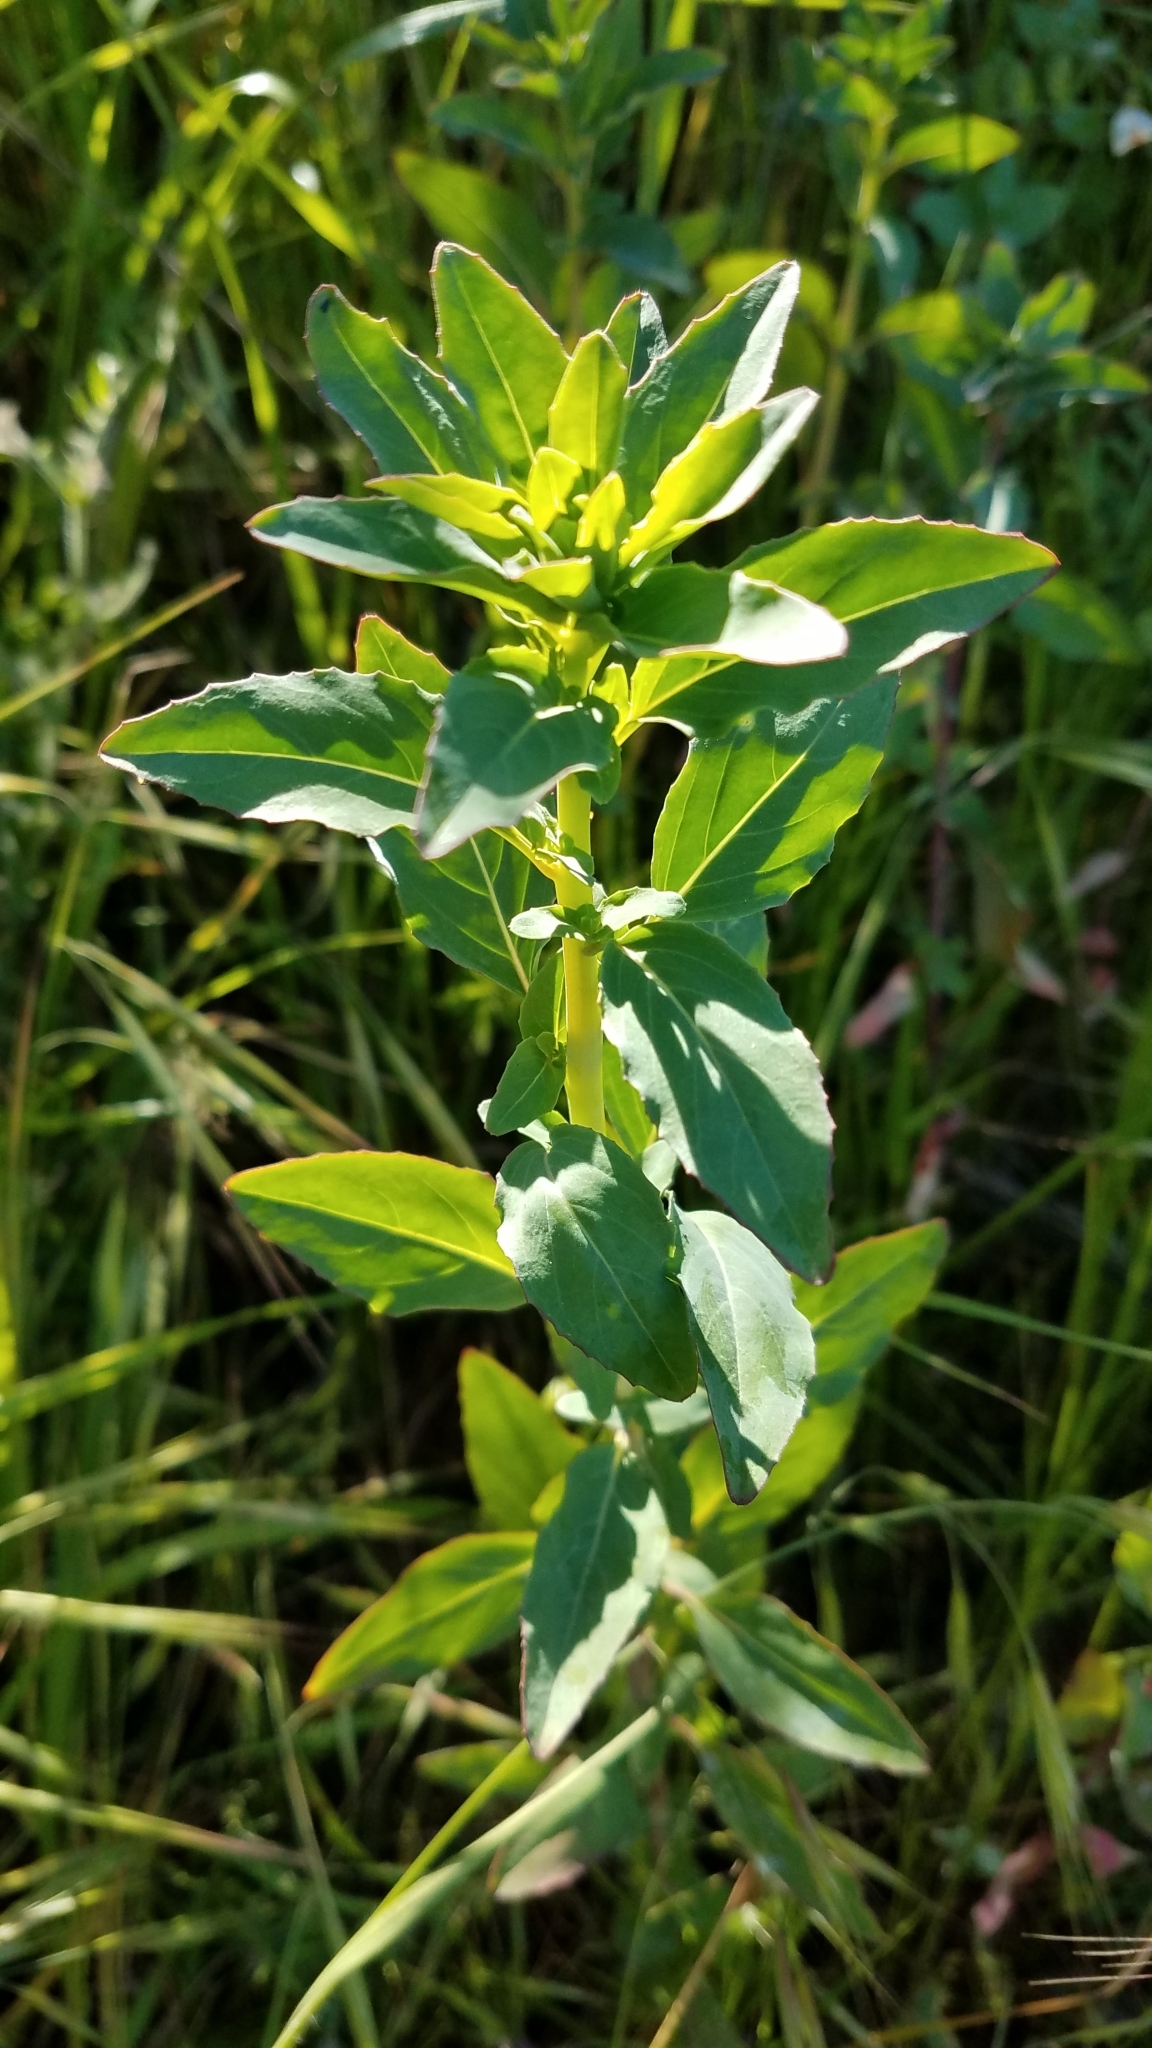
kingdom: Plantae
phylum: Tracheophyta
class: Magnoliopsida
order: Myrtales
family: Onagraceae
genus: Clarkia
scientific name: Clarkia unguiculata
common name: Clarkia
